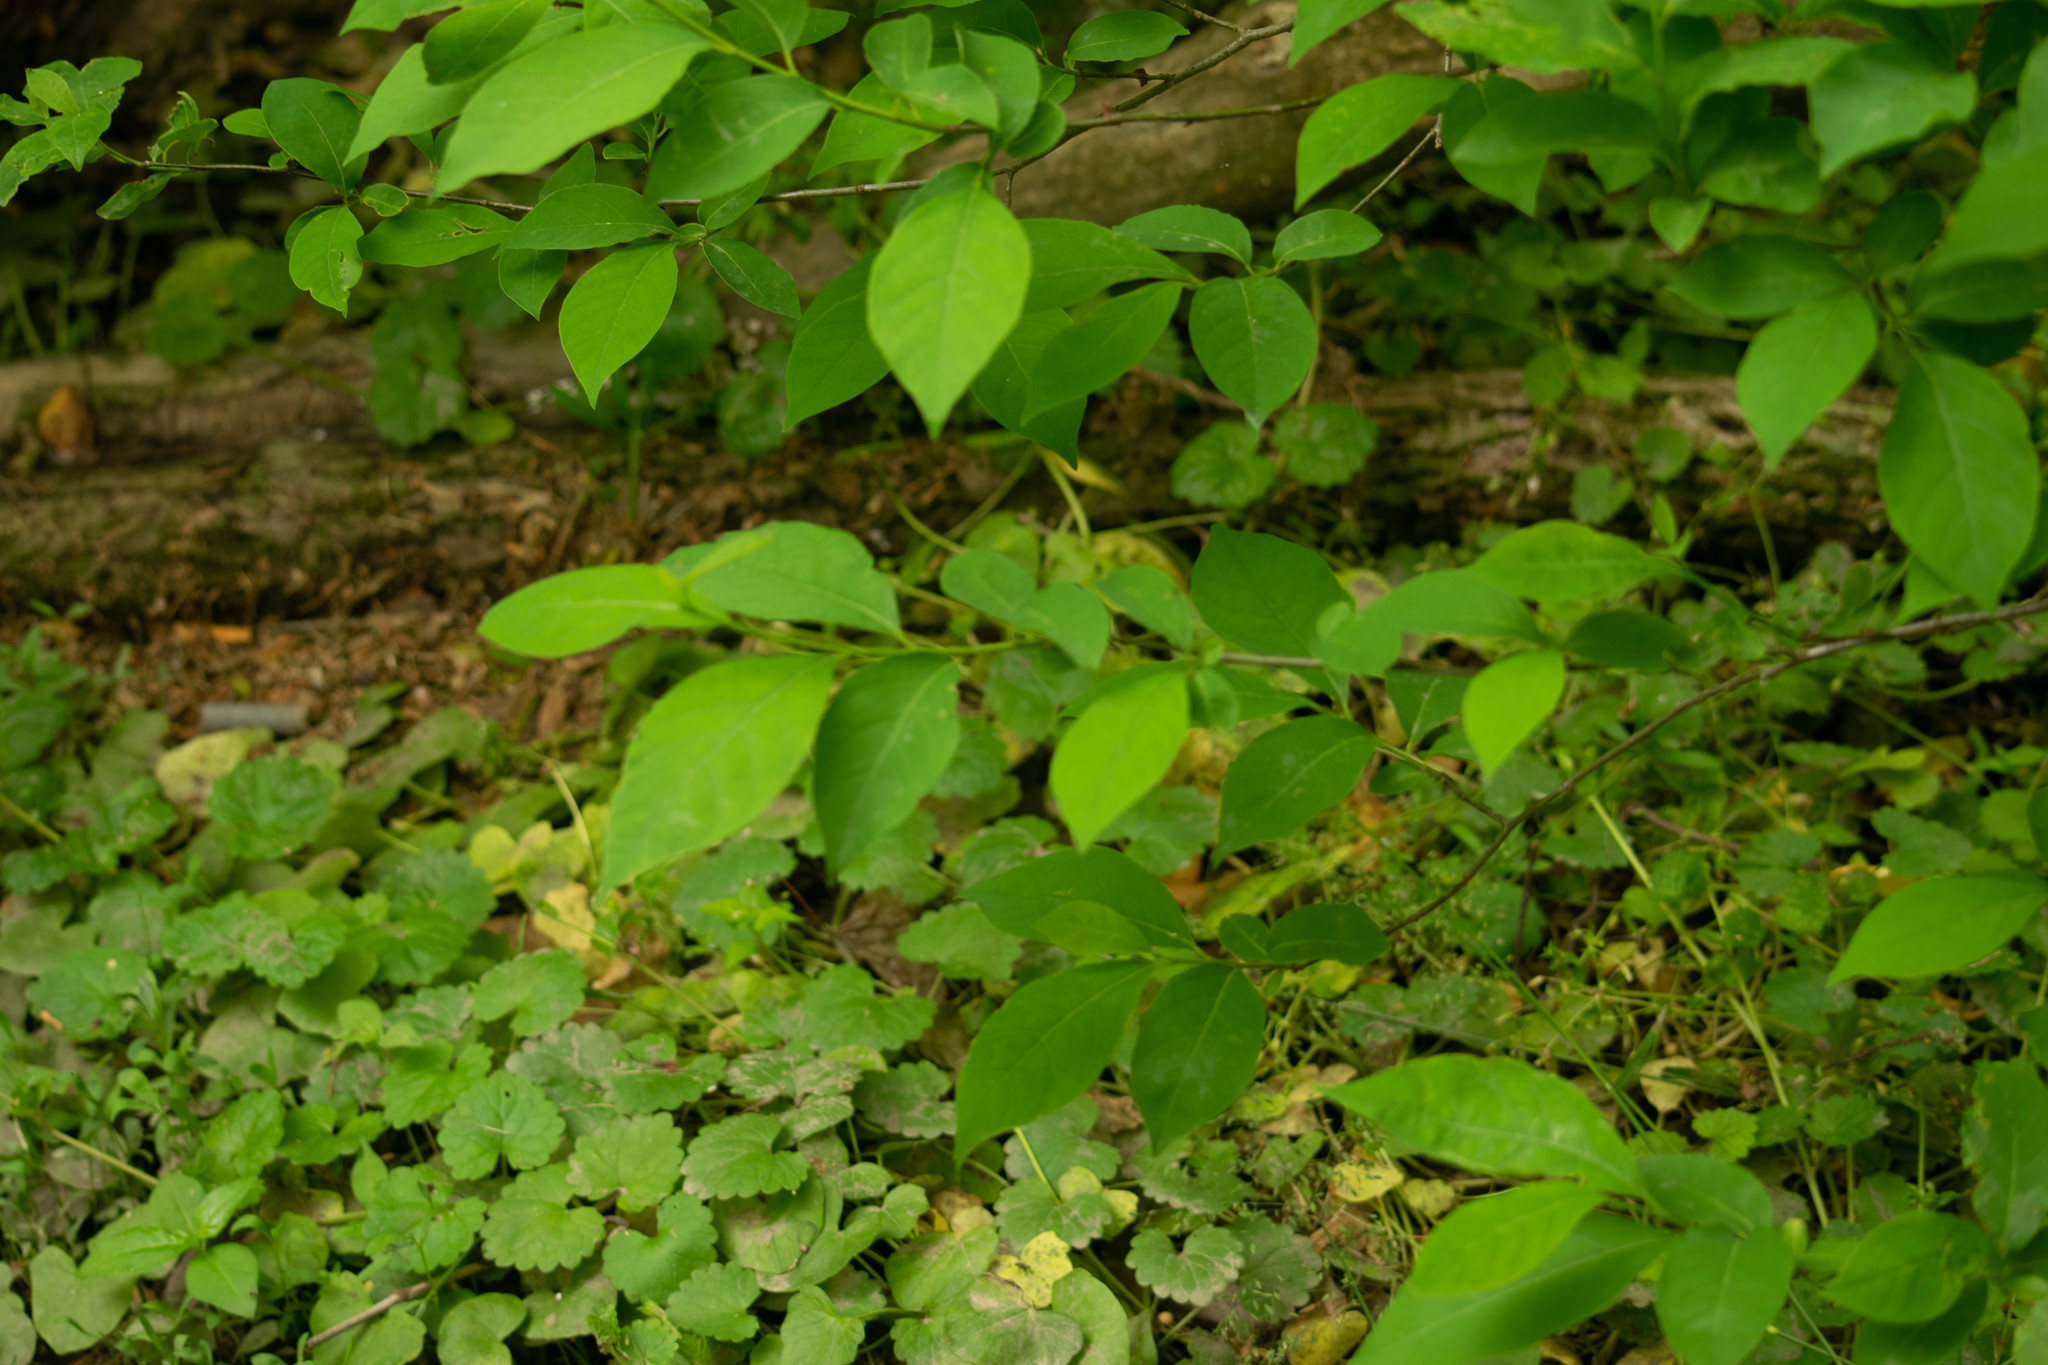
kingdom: Plantae
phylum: Tracheophyta
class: Magnoliopsida
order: Laurales
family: Lauraceae
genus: Lindera
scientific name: Lindera benzoin
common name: Spicebush
